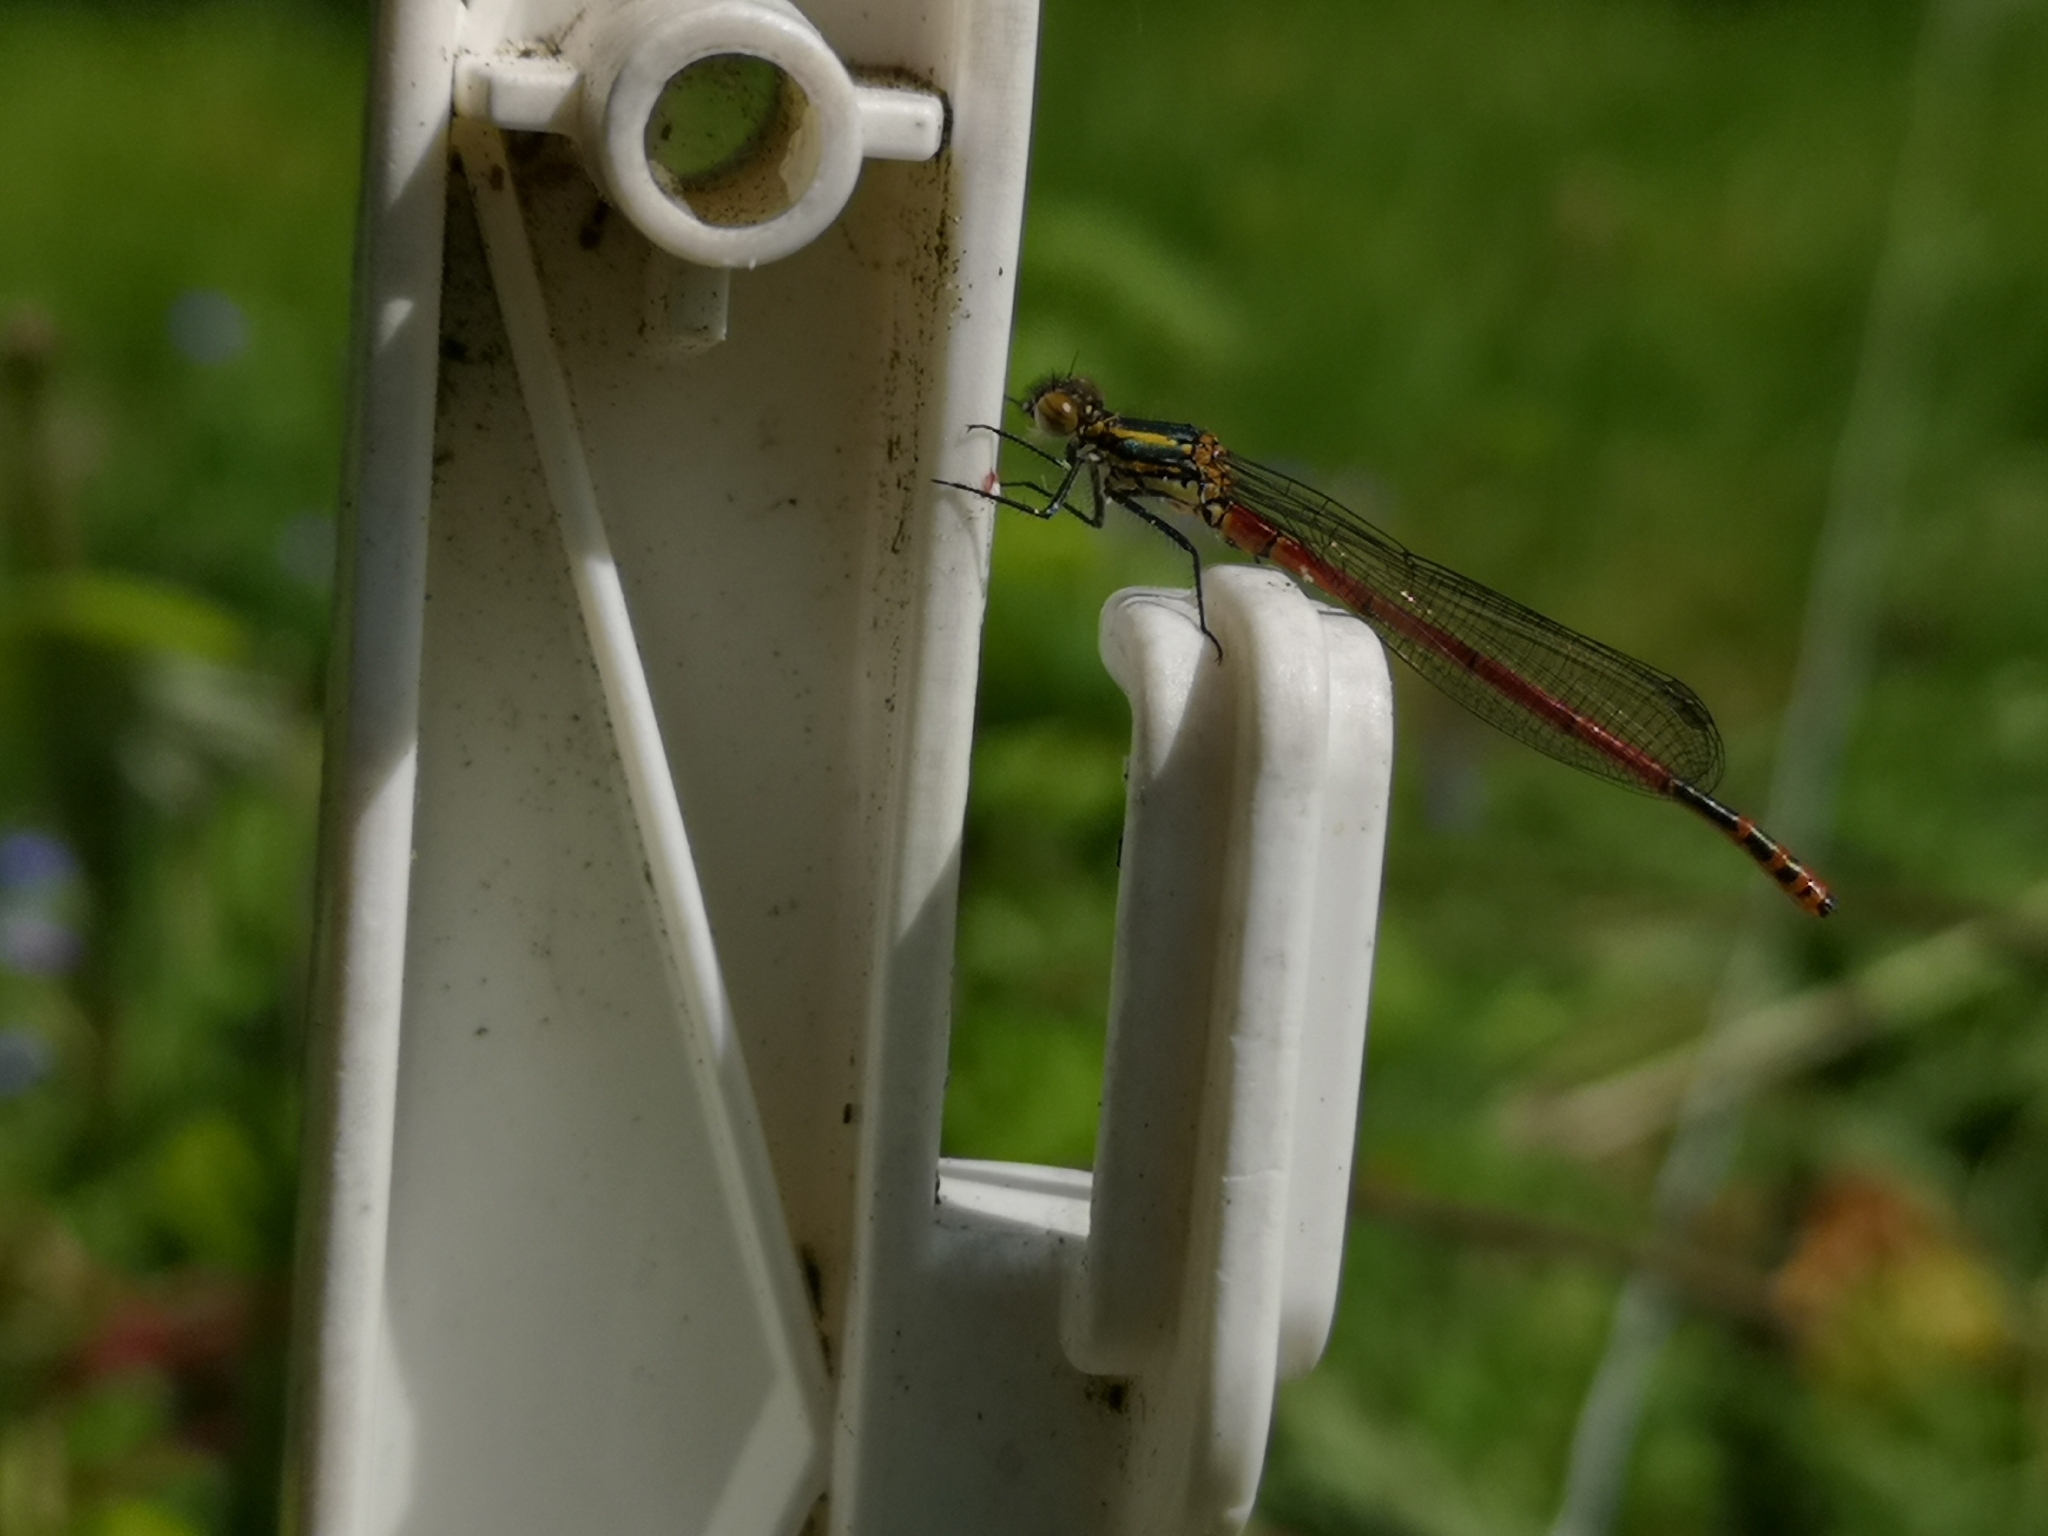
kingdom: Animalia
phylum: Arthropoda
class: Insecta
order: Odonata
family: Coenagrionidae
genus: Pyrrhosoma
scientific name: Pyrrhosoma nymphula
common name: Large red damsel
